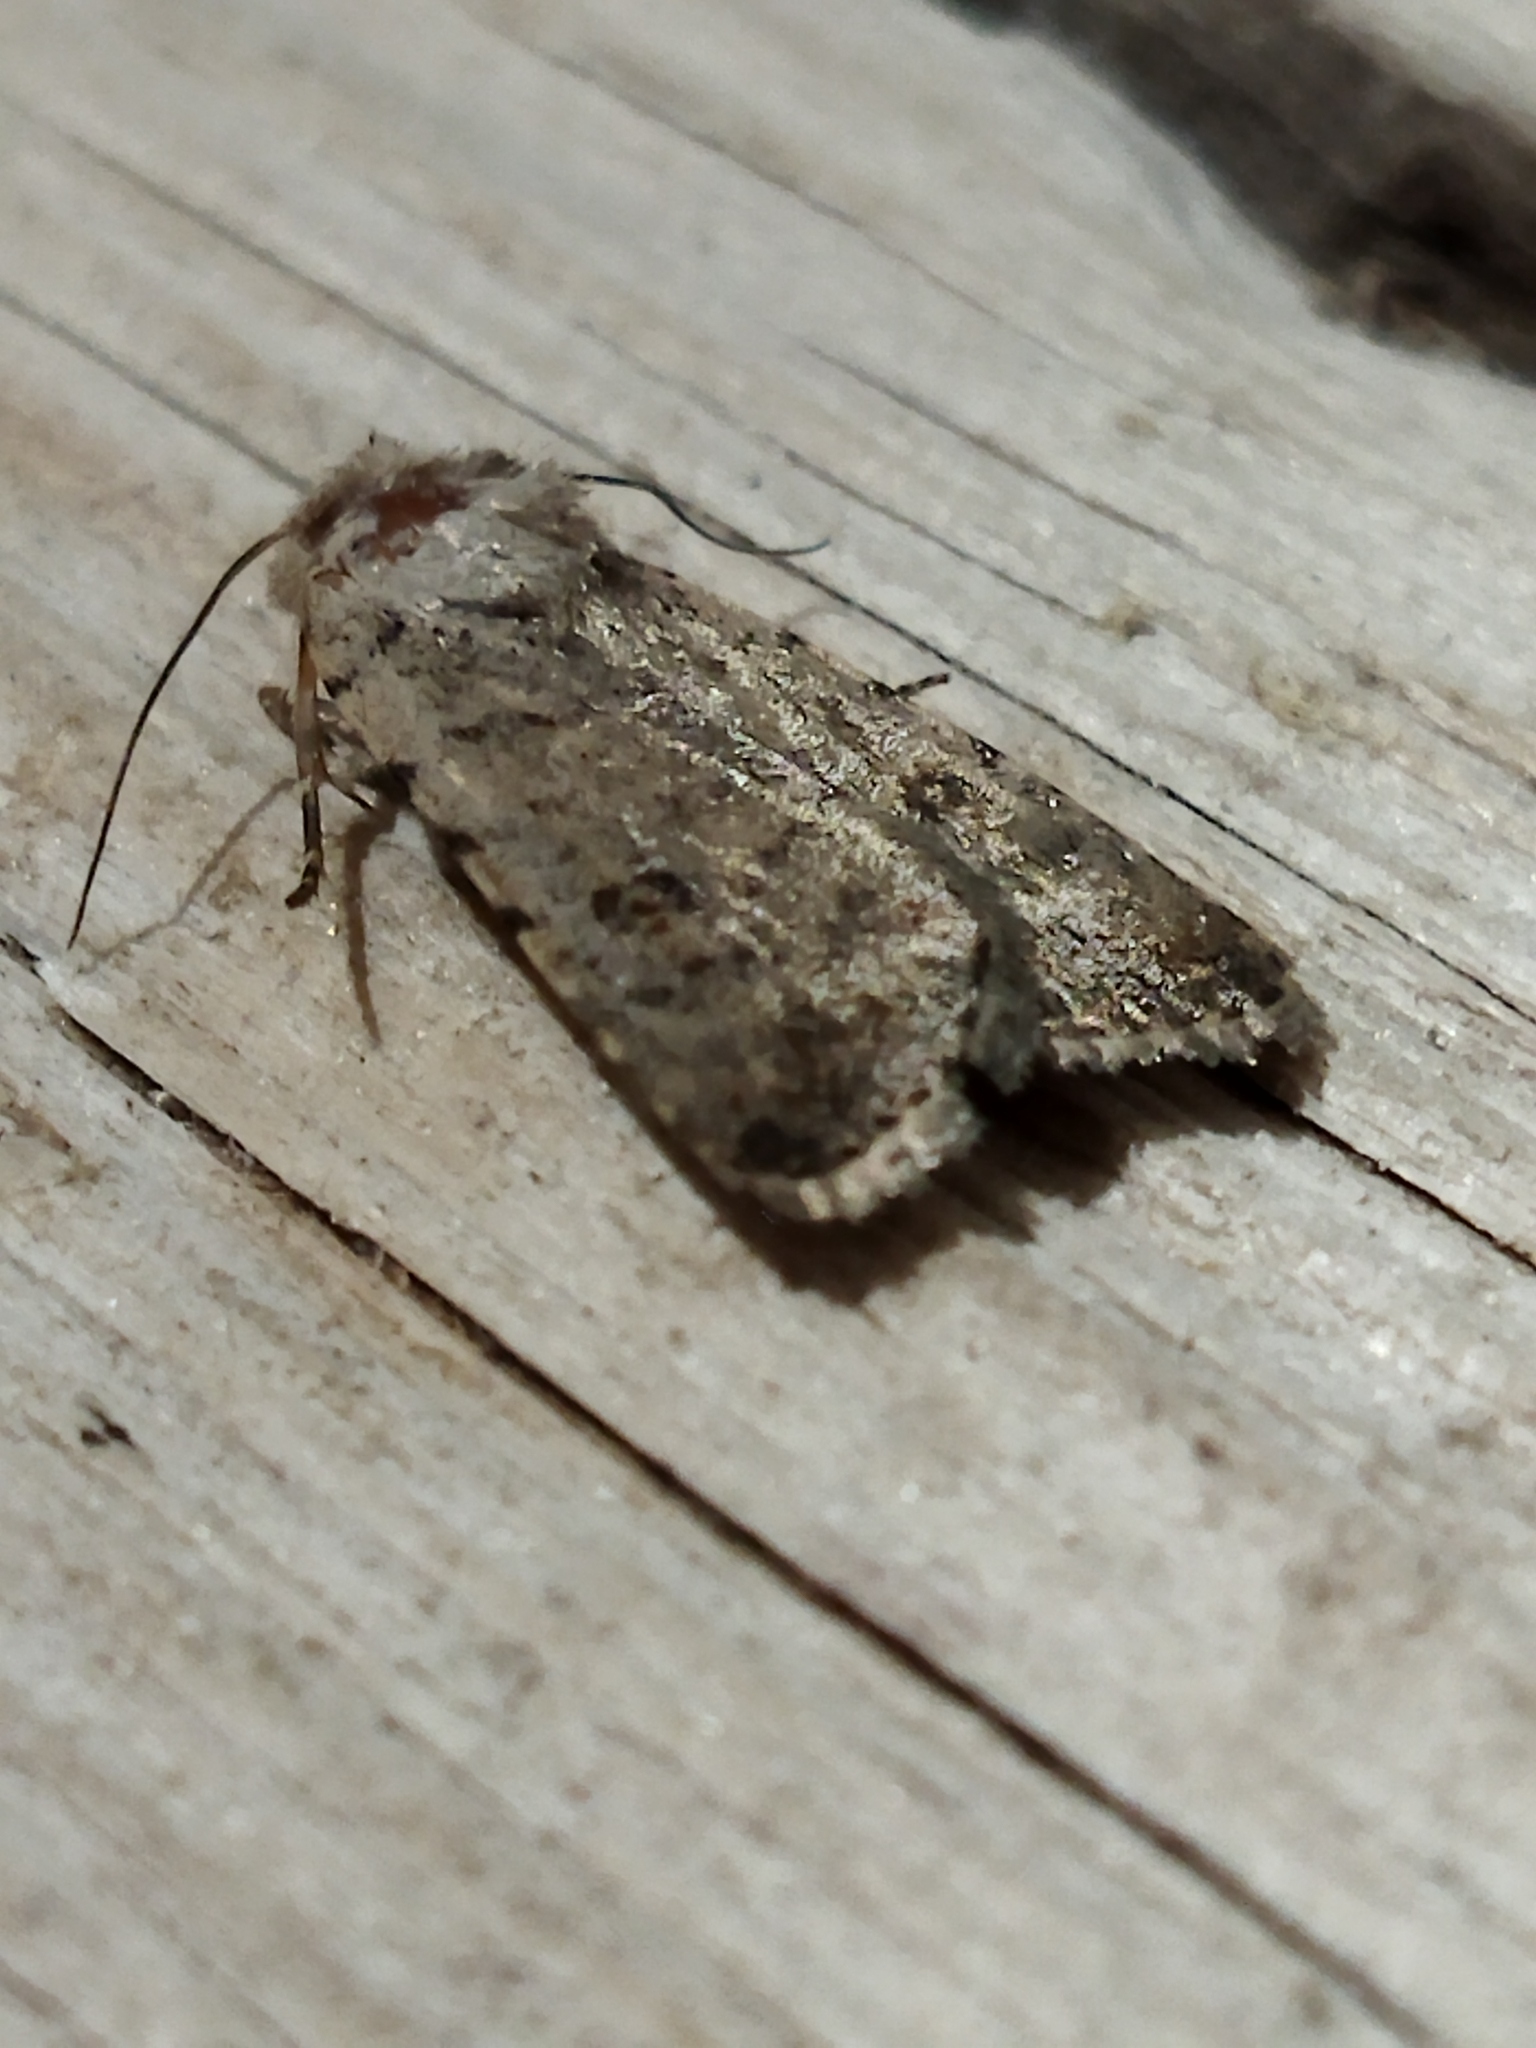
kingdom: Animalia
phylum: Arthropoda
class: Insecta
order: Lepidoptera
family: Noctuidae
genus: Caradrina
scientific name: Caradrina clavipalpis
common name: Pale mottled willow
